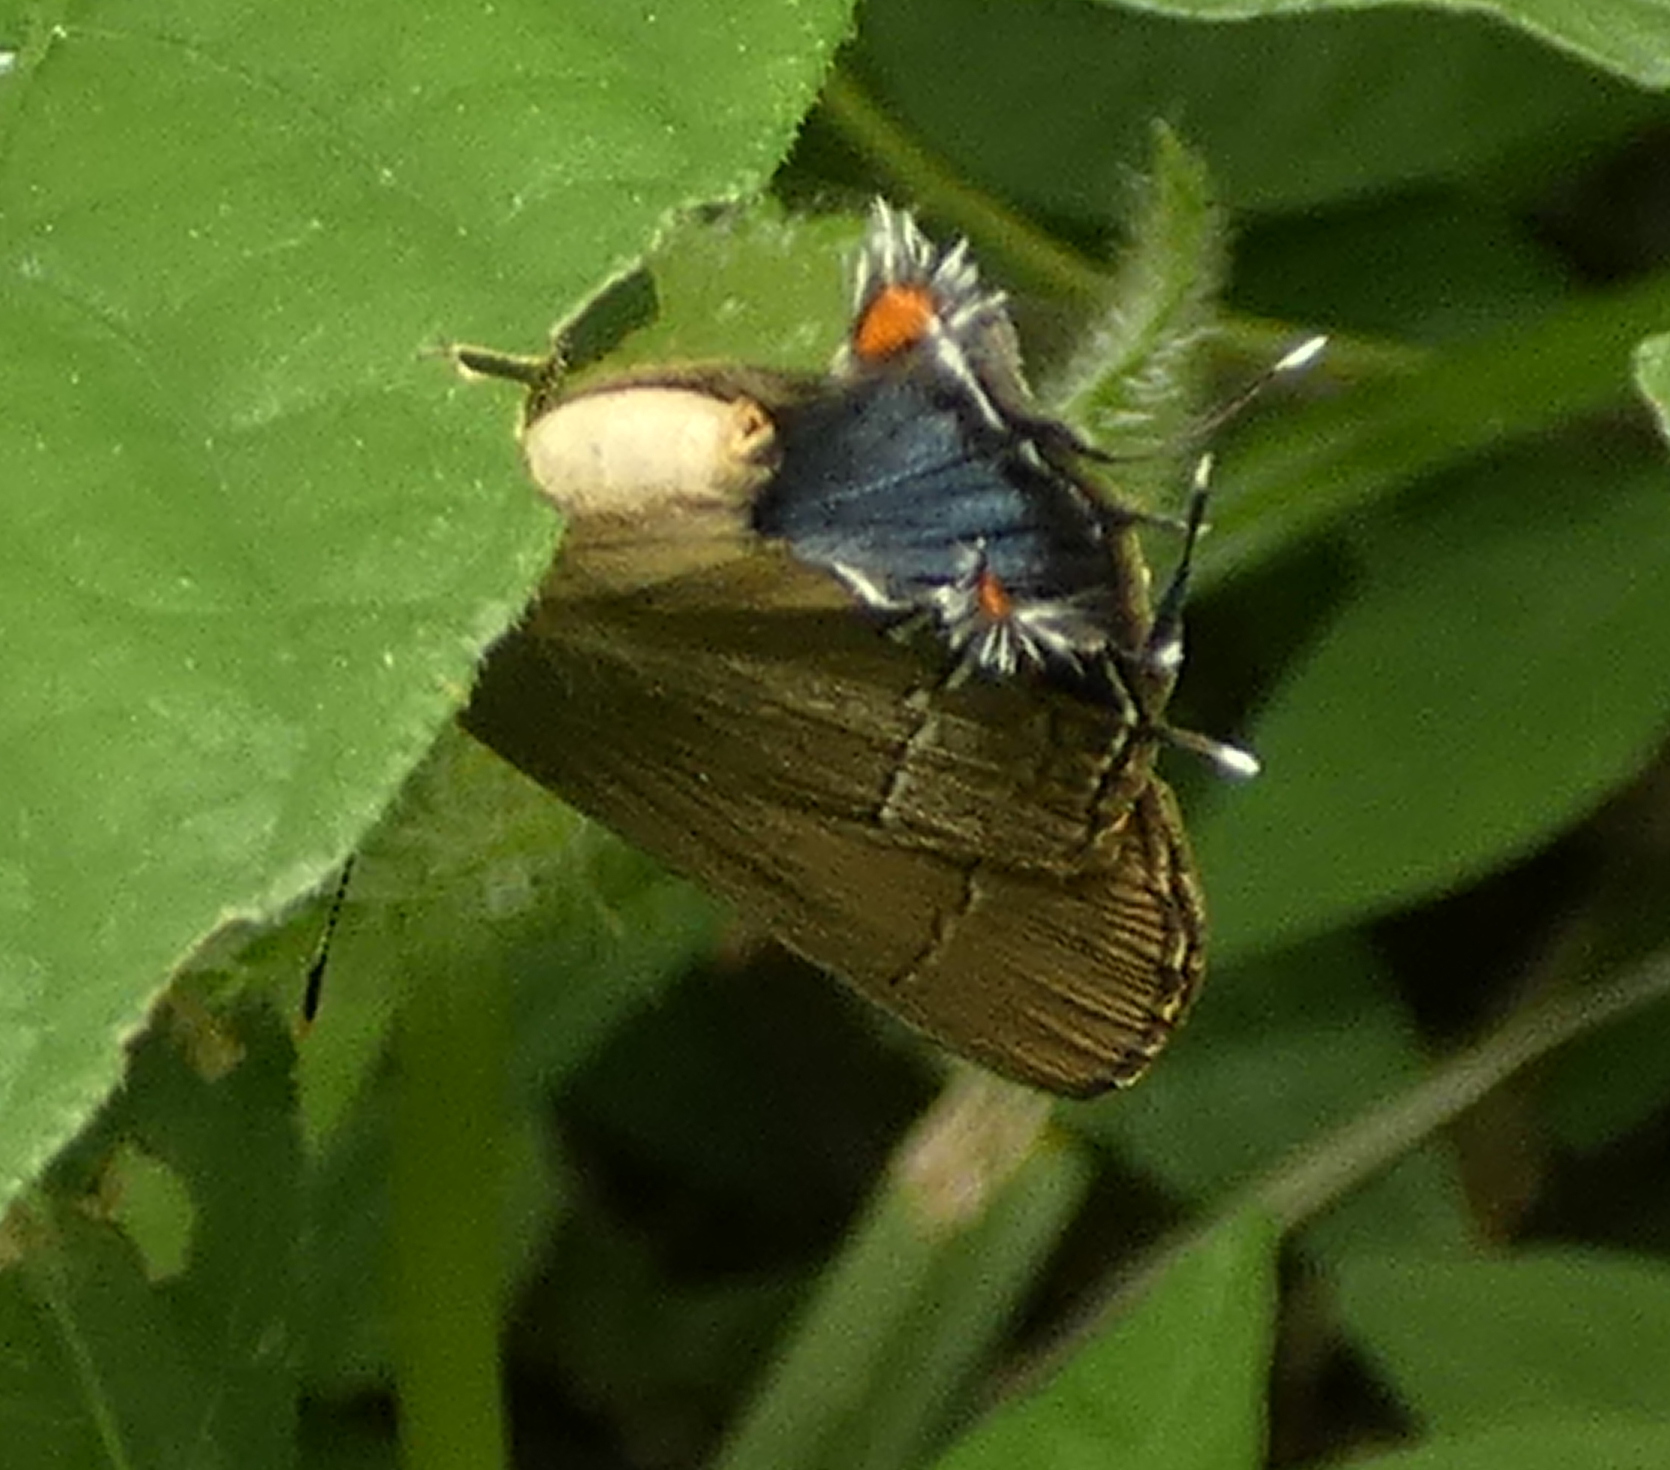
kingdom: Animalia
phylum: Arthropoda
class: Insecta
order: Lepidoptera
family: Lycaenidae
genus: Ziegleria
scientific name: Ziegleria hesperitis
